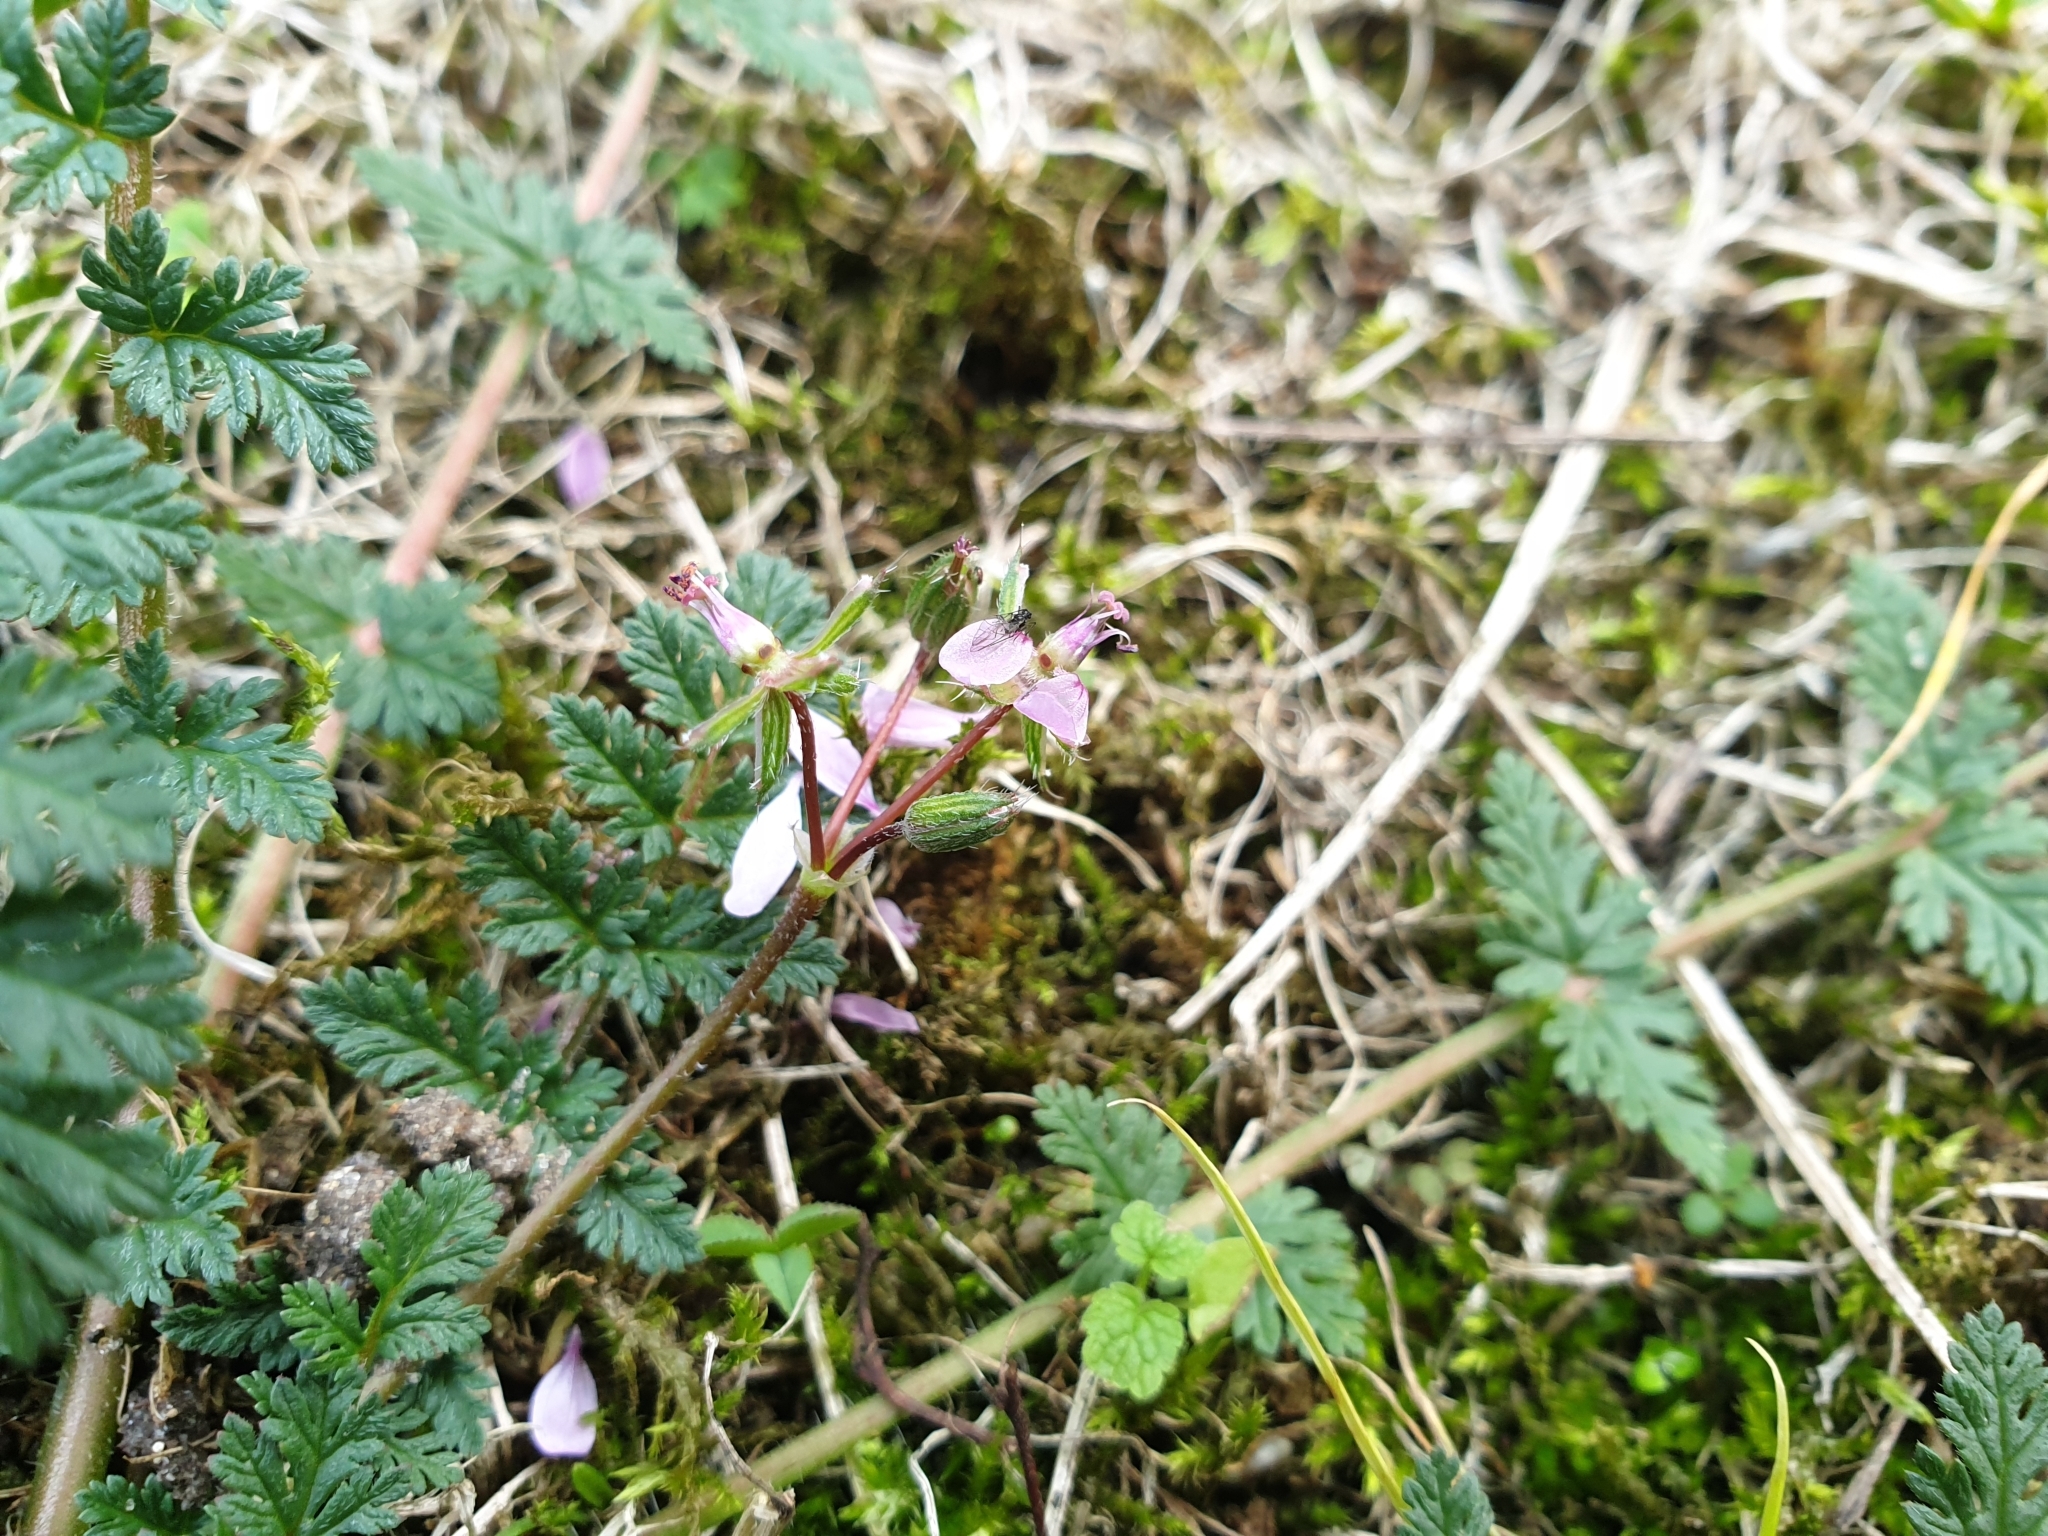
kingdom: Plantae
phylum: Tracheophyta
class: Magnoliopsida
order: Geraniales
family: Geraniaceae
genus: Erodium
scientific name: Erodium cicutarium
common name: Common stork's-bill
